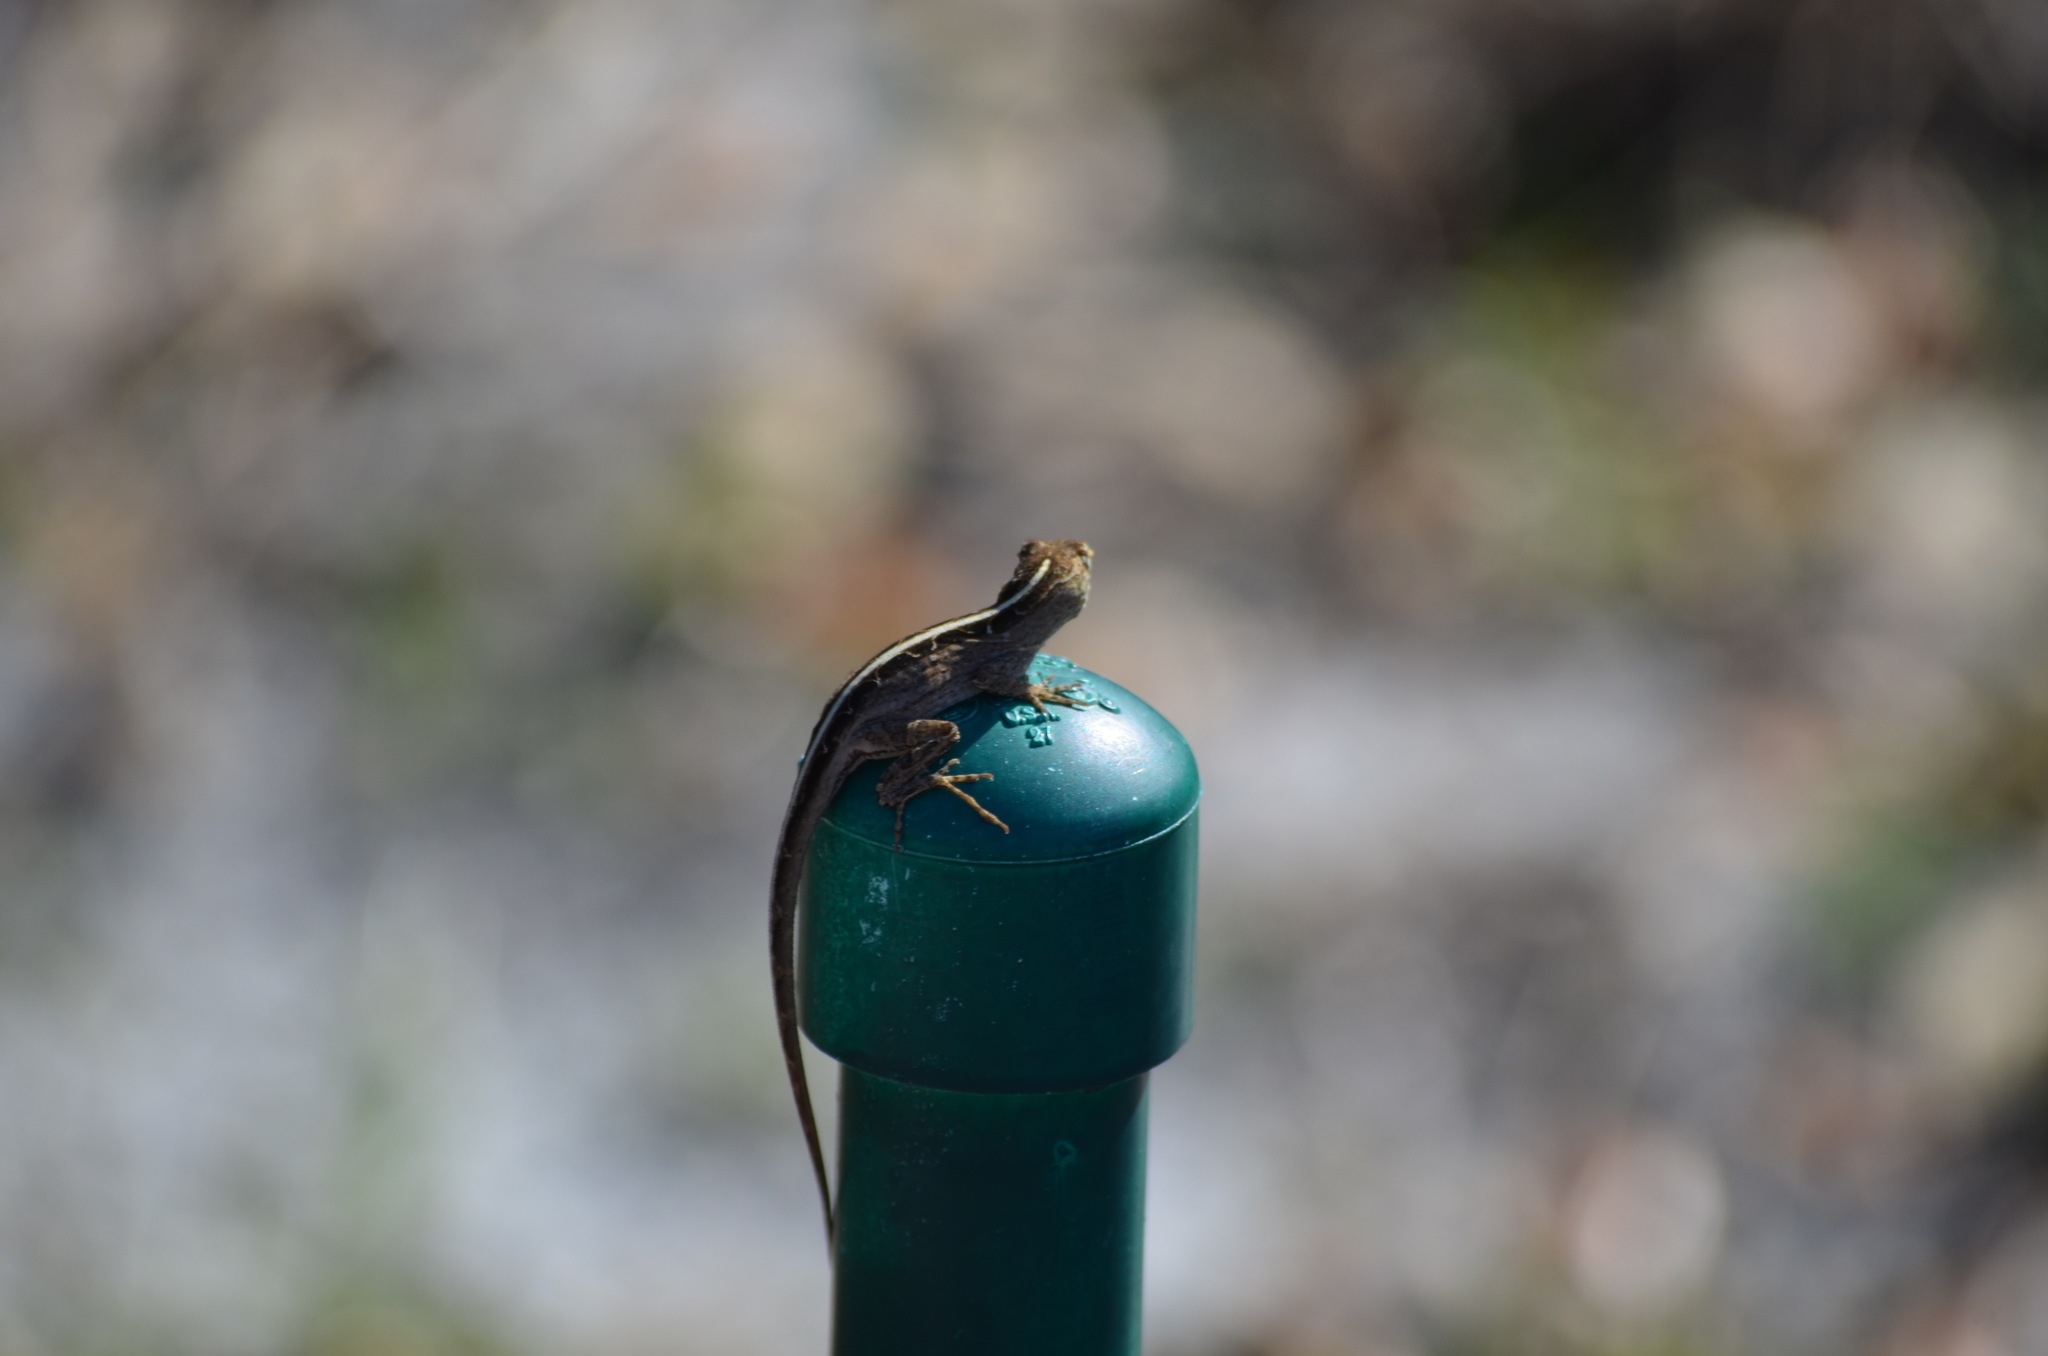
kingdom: Animalia
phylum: Chordata
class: Squamata
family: Dactyloidae
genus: Anolis
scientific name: Anolis sagrei
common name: Brown anole
